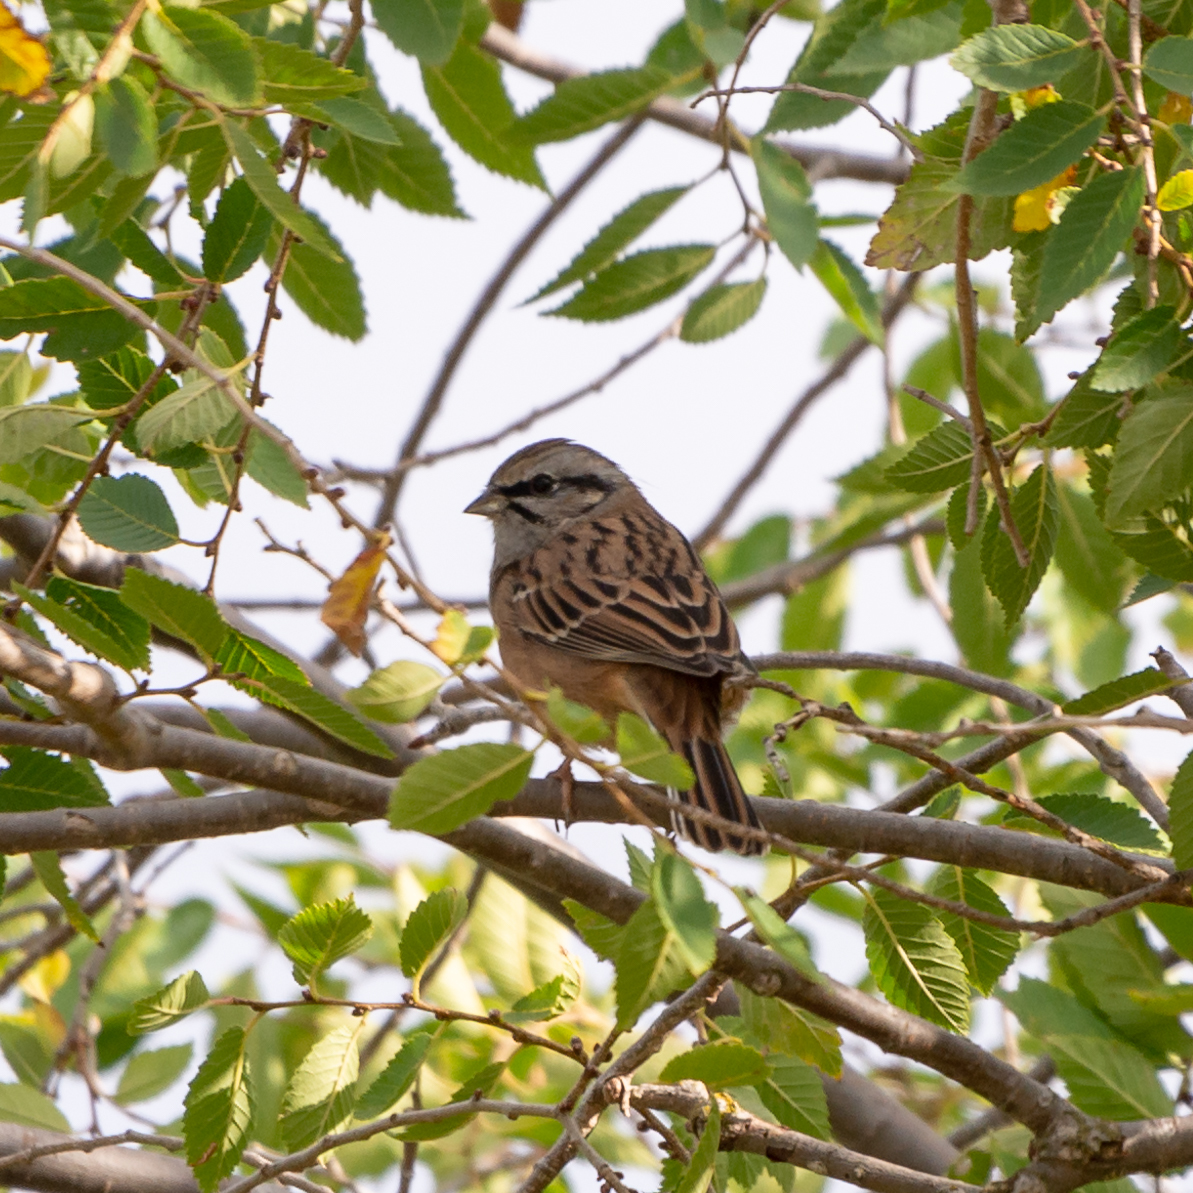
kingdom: Animalia
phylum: Chordata
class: Aves
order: Passeriformes
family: Emberizidae
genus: Emberiza
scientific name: Emberiza cia
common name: Rock bunting
